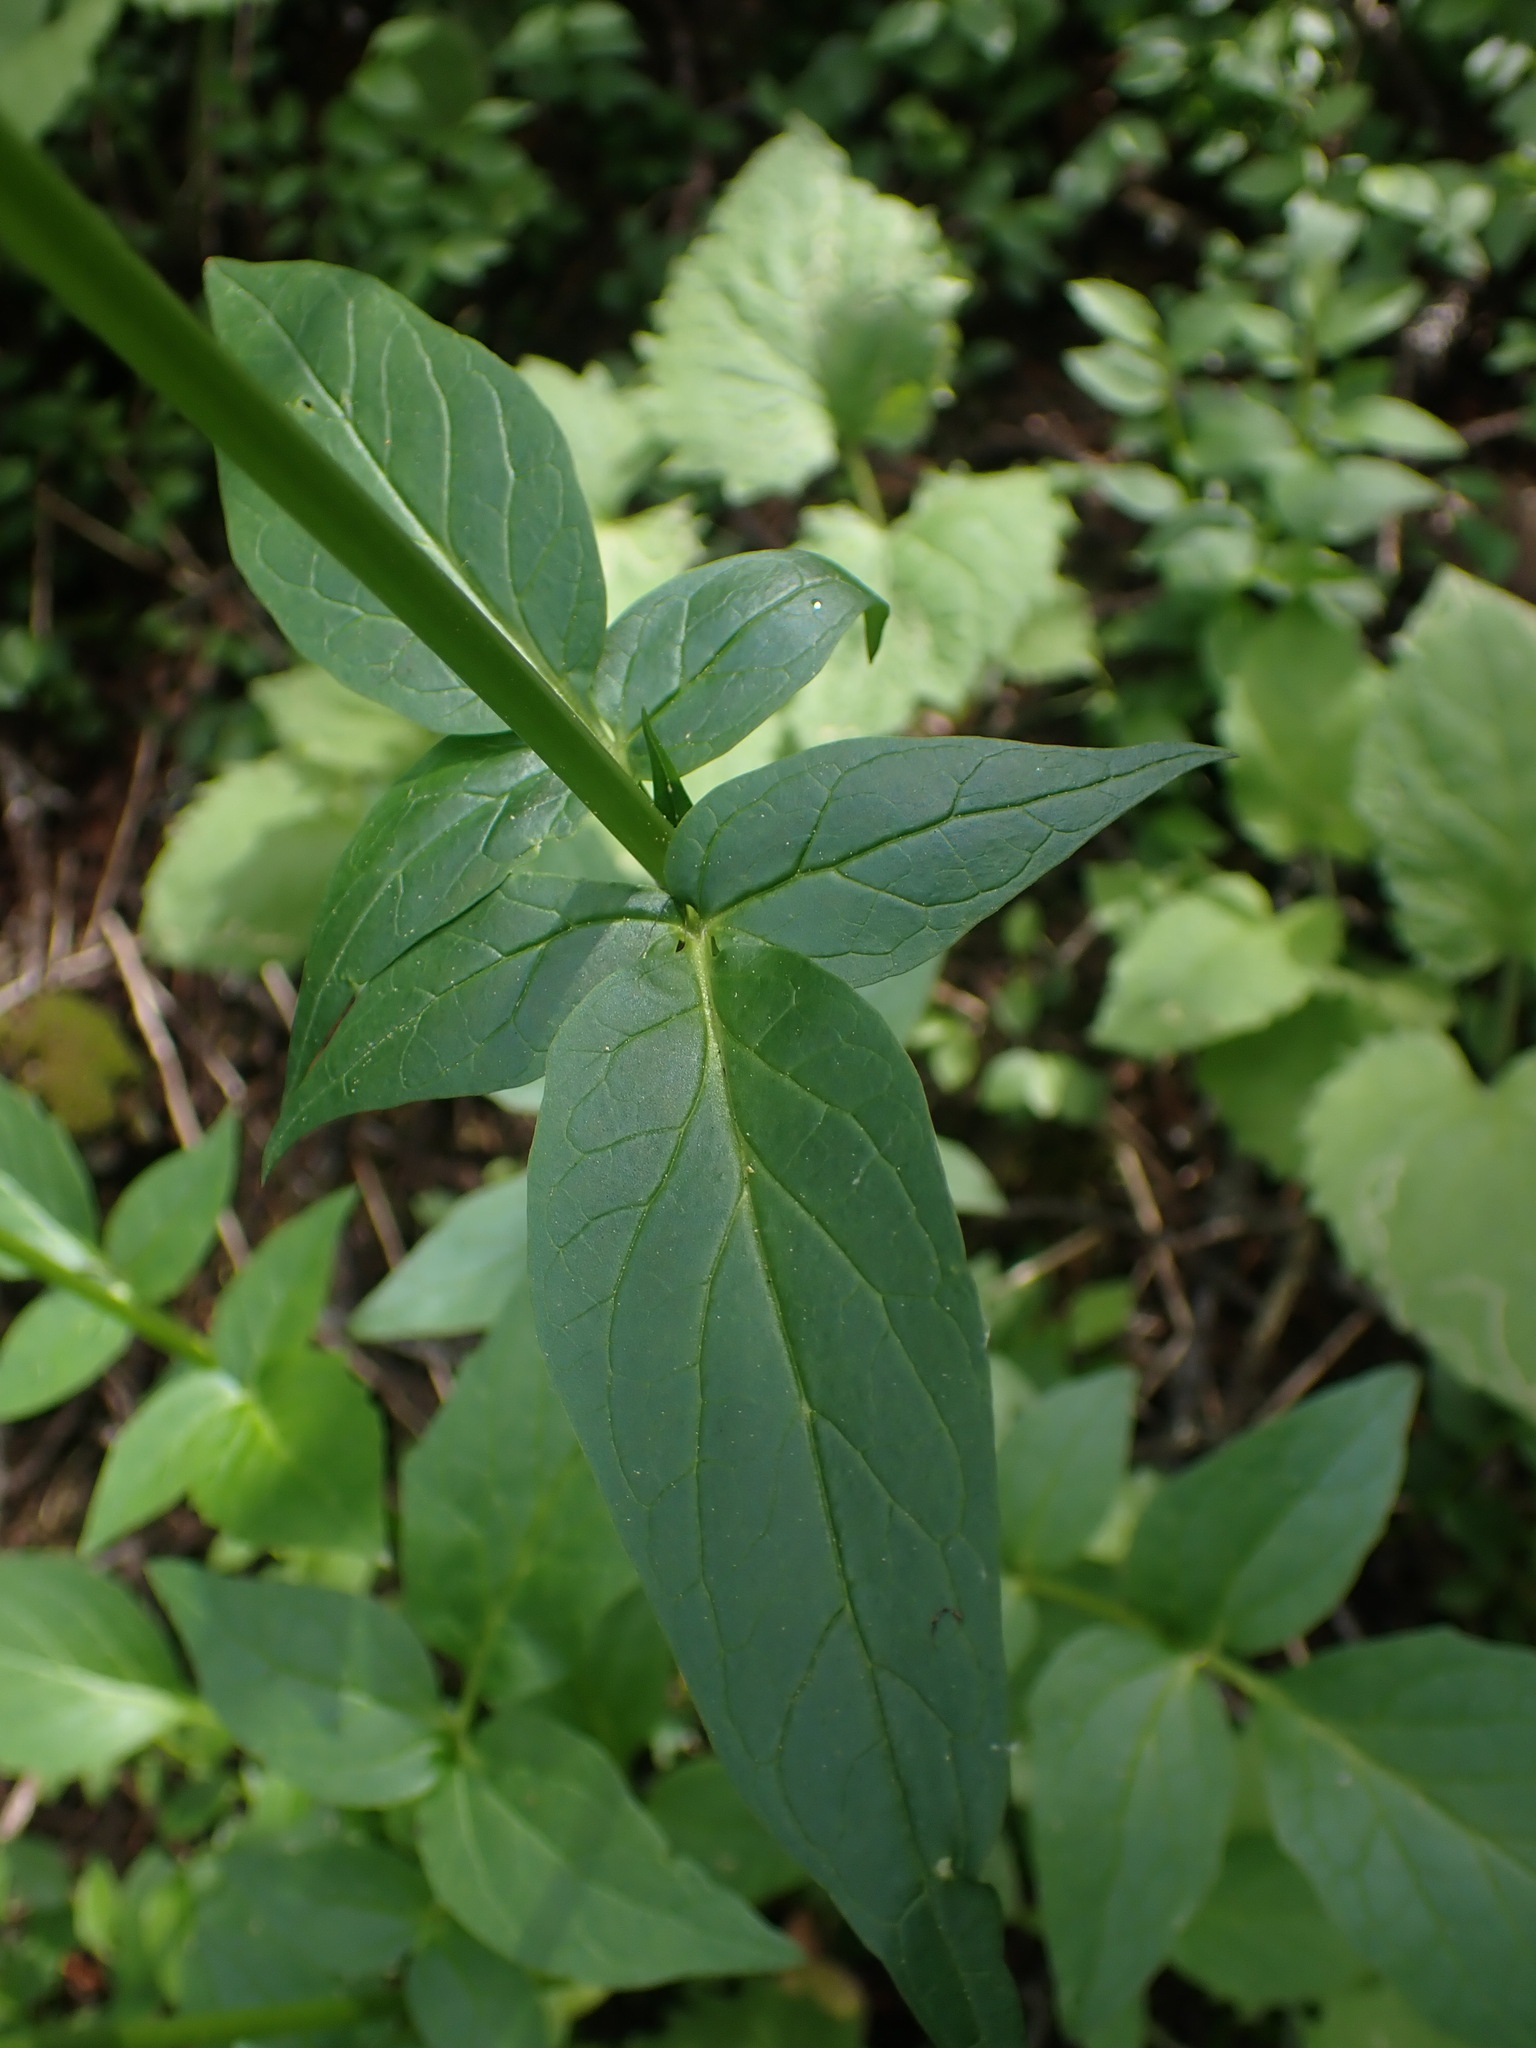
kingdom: Plantae
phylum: Tracheophyta
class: Magnoliopsida
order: Dipsacales
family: Caprifoliaceae
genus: Valeriana
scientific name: Valeriana sitchensis
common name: Pacific valerian
